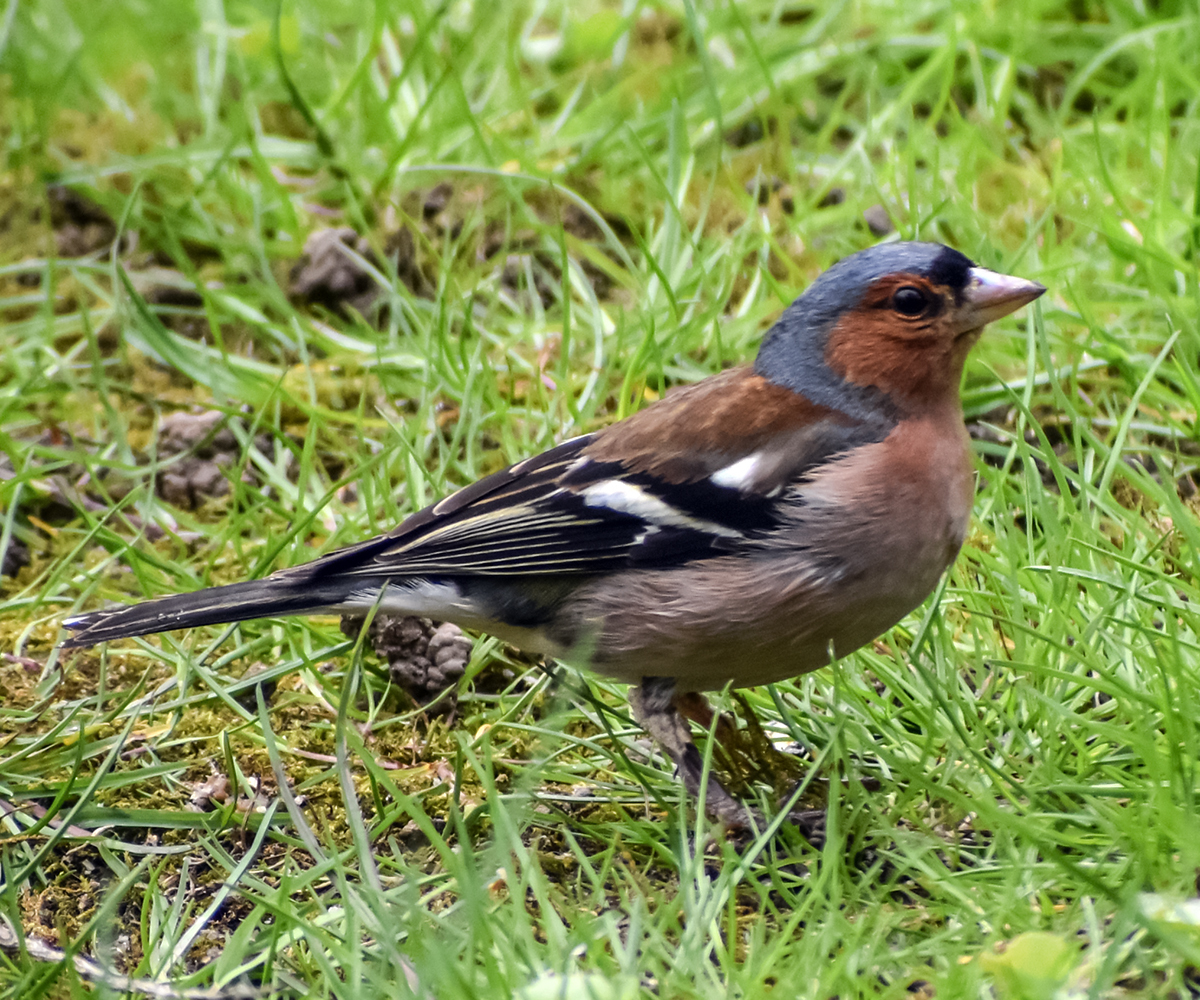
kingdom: Animalia
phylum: Chordata
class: Aves
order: Passeriformes
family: Fringillidae
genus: Fringilla
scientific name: Fringilla coelebs
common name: Common chaffinch
